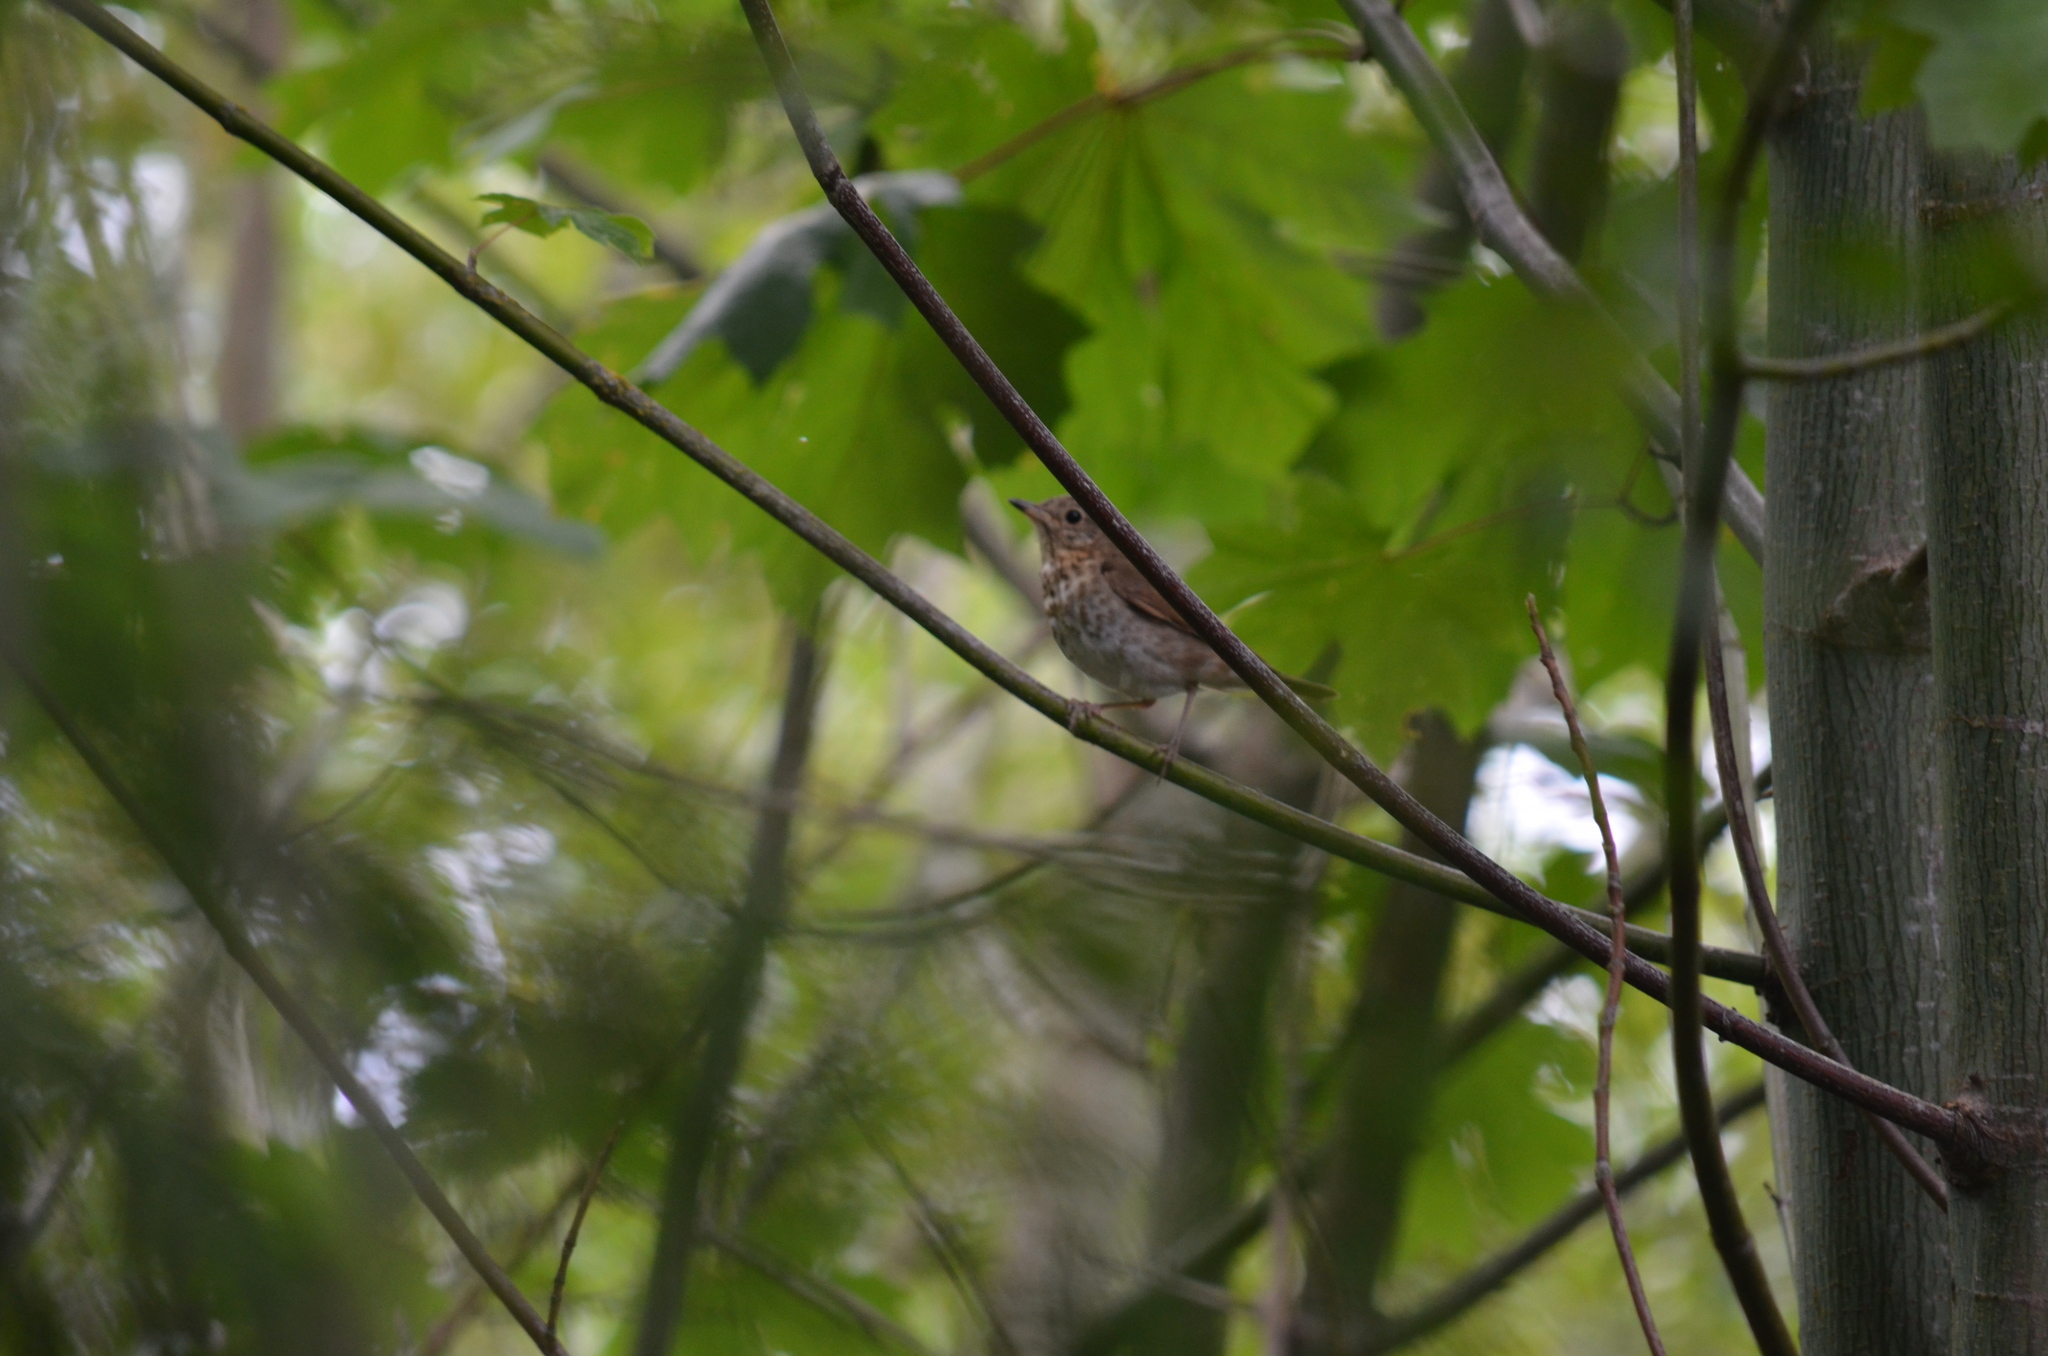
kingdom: Animalia
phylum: Chordata
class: Aves
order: Passeriformes
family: Turdidae
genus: Catharus
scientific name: Catharus ustulatus
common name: Swainson's thrush
